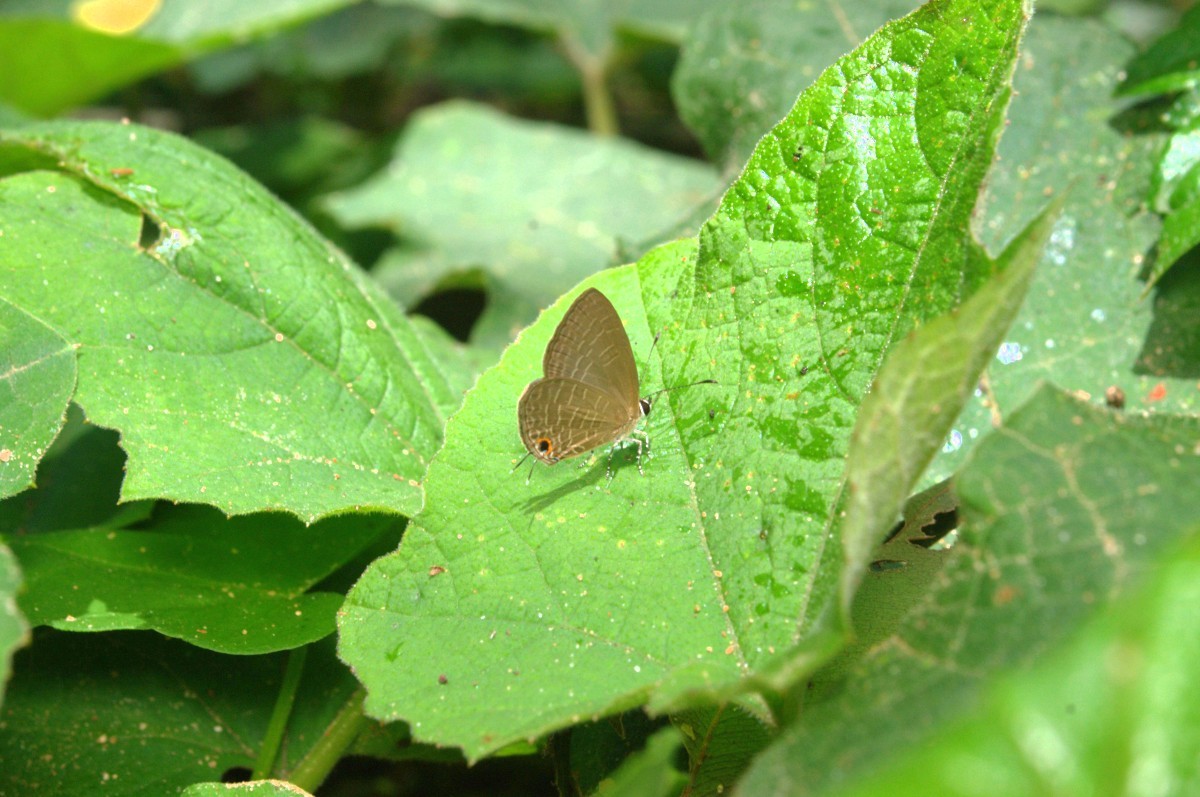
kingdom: Animalia
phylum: Arthropoda
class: Insecta
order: Lepidoptera
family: Lycaenidae
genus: Jamides
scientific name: Jamides bochus
